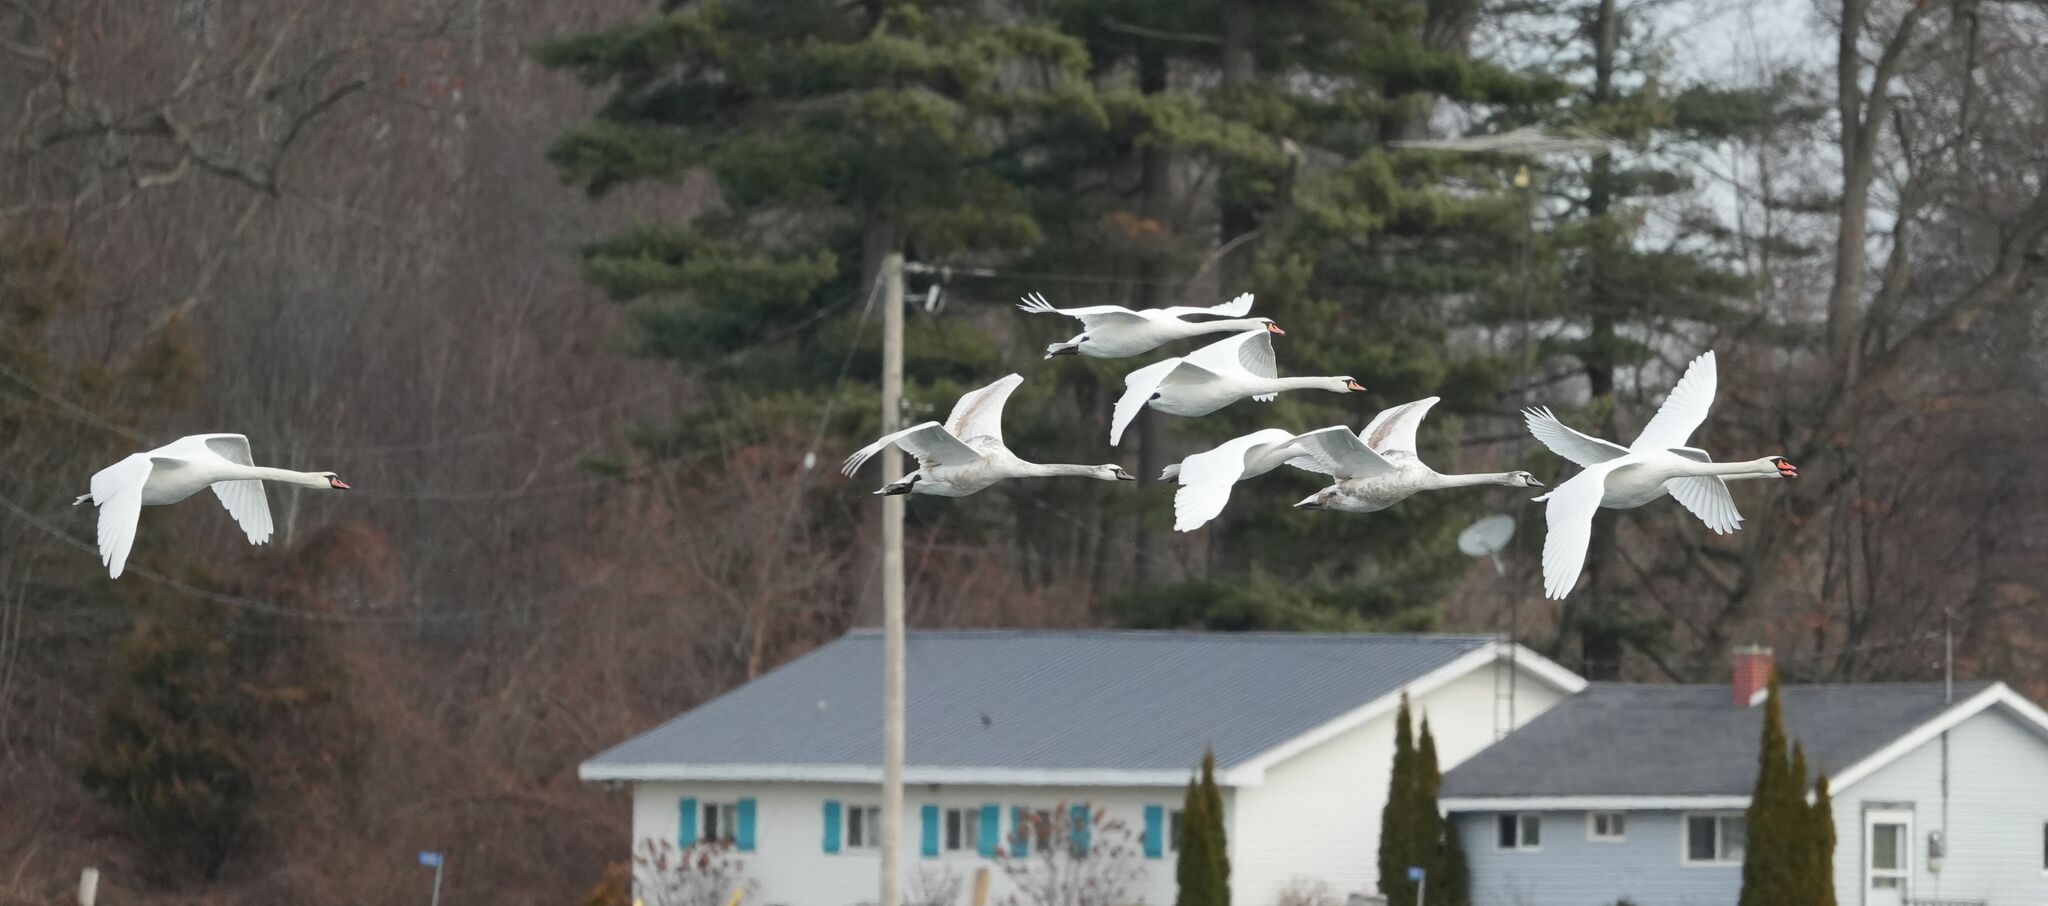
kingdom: Animalia
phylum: Chordata
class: Aves
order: Anseriformes
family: Anatidae
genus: Cygnus
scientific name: Cygnus olor
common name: Mute swan
